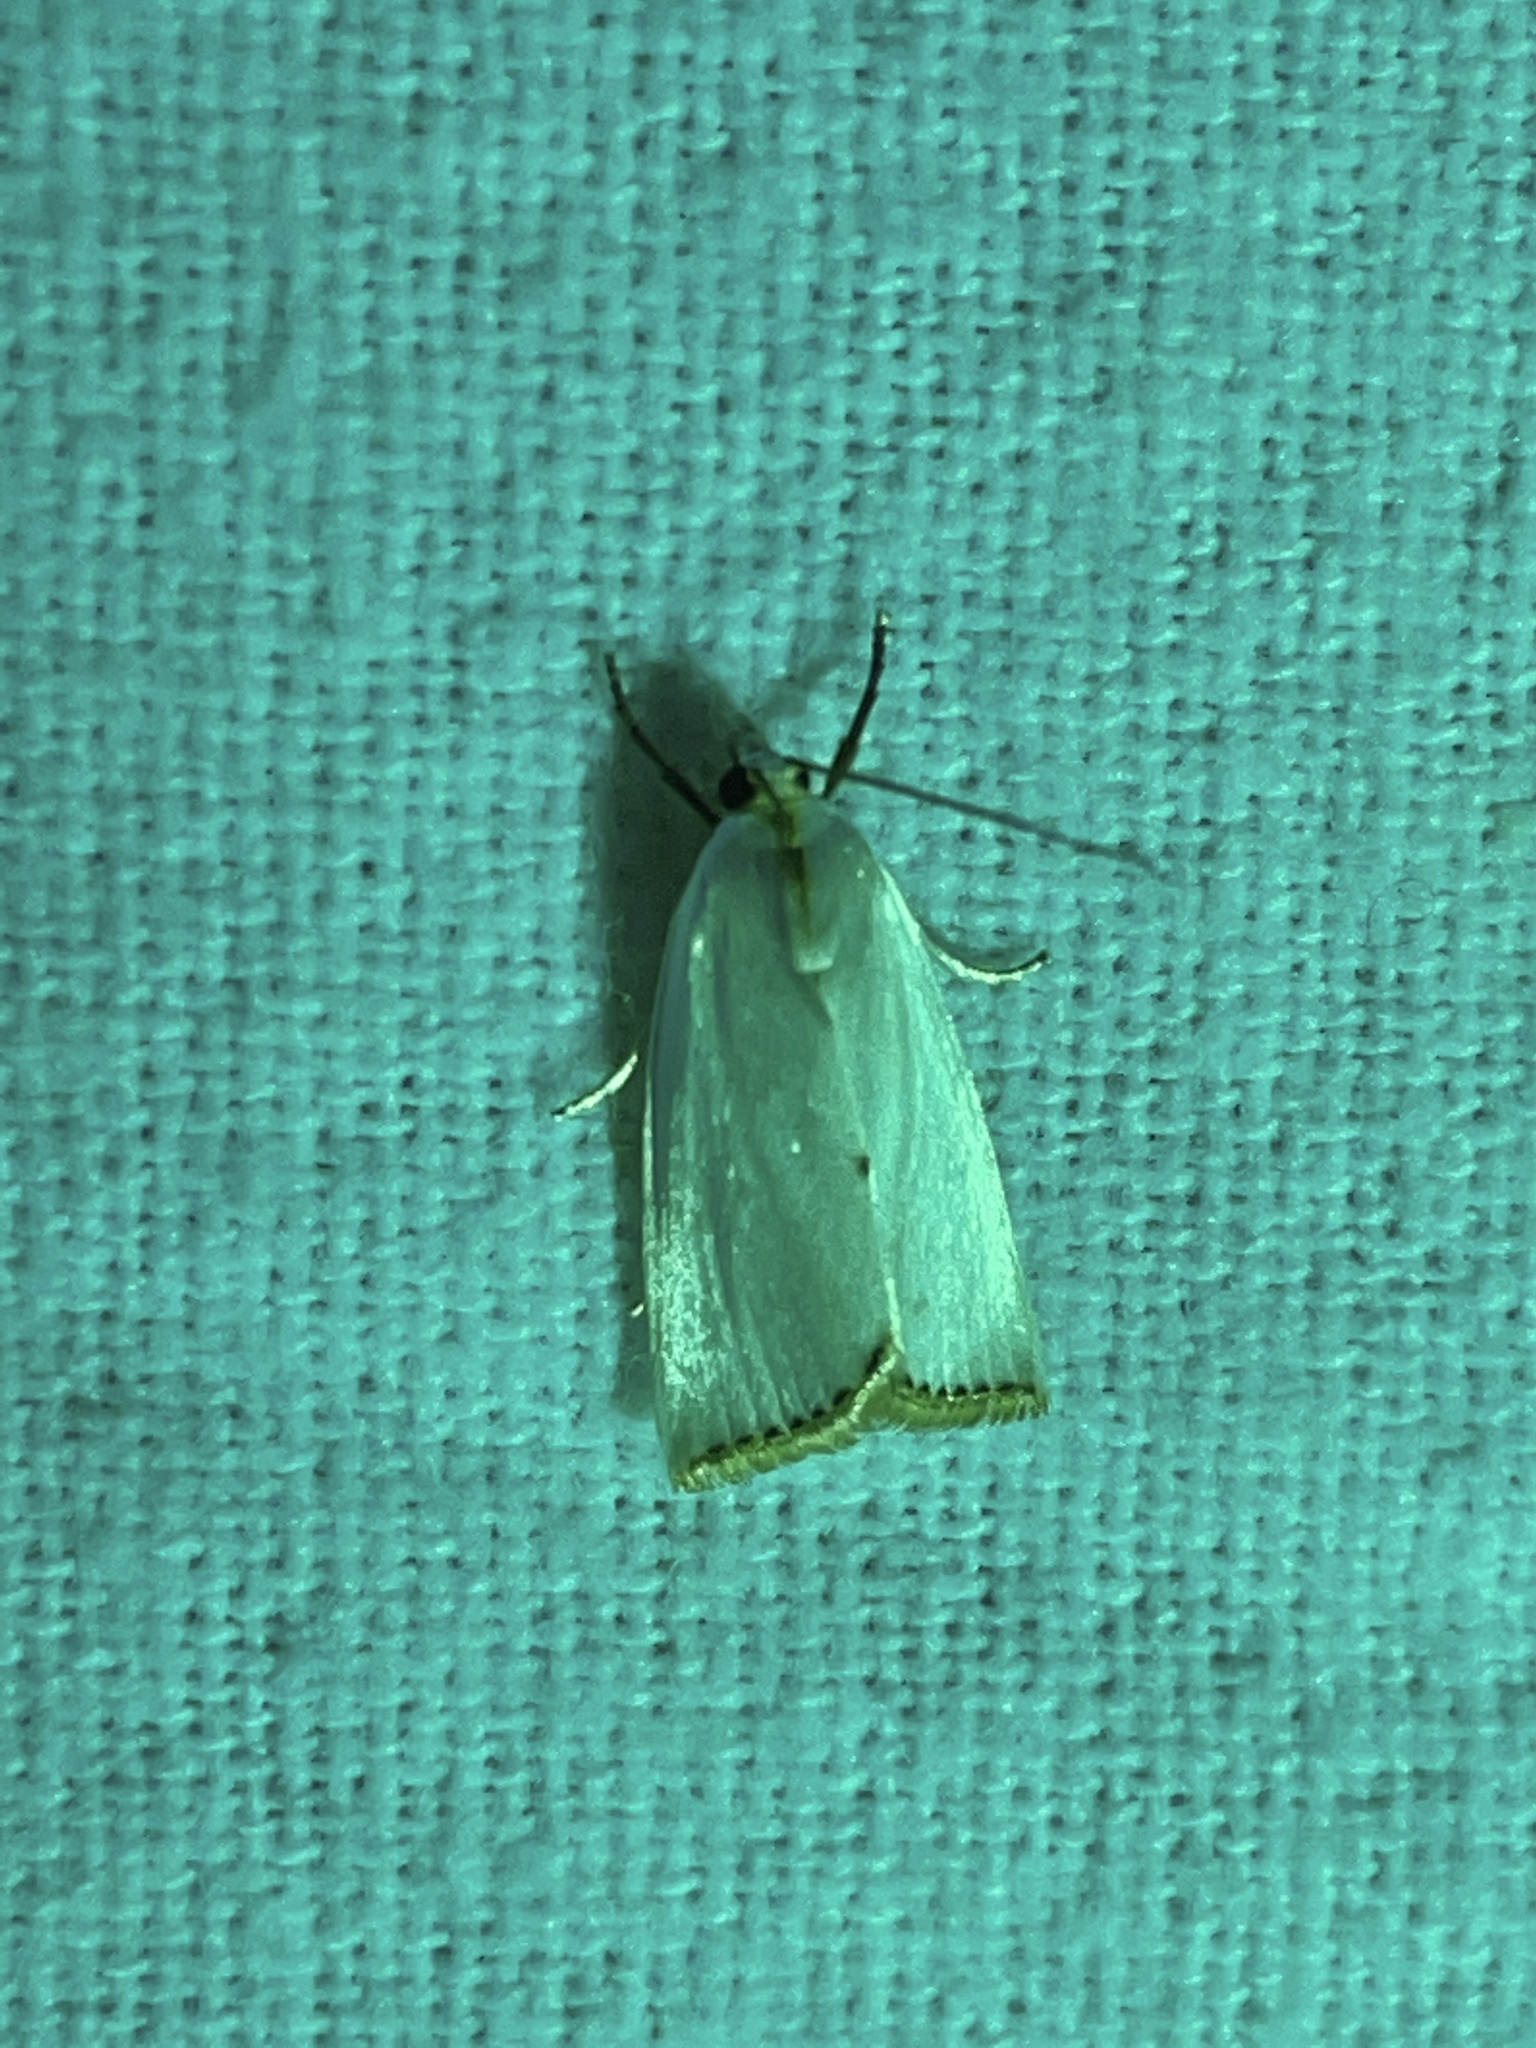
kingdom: Animalia
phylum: Arthropoda
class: Insecta
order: Lepidoptera
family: Crambidae
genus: Argyria
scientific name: Argyria nivalis
